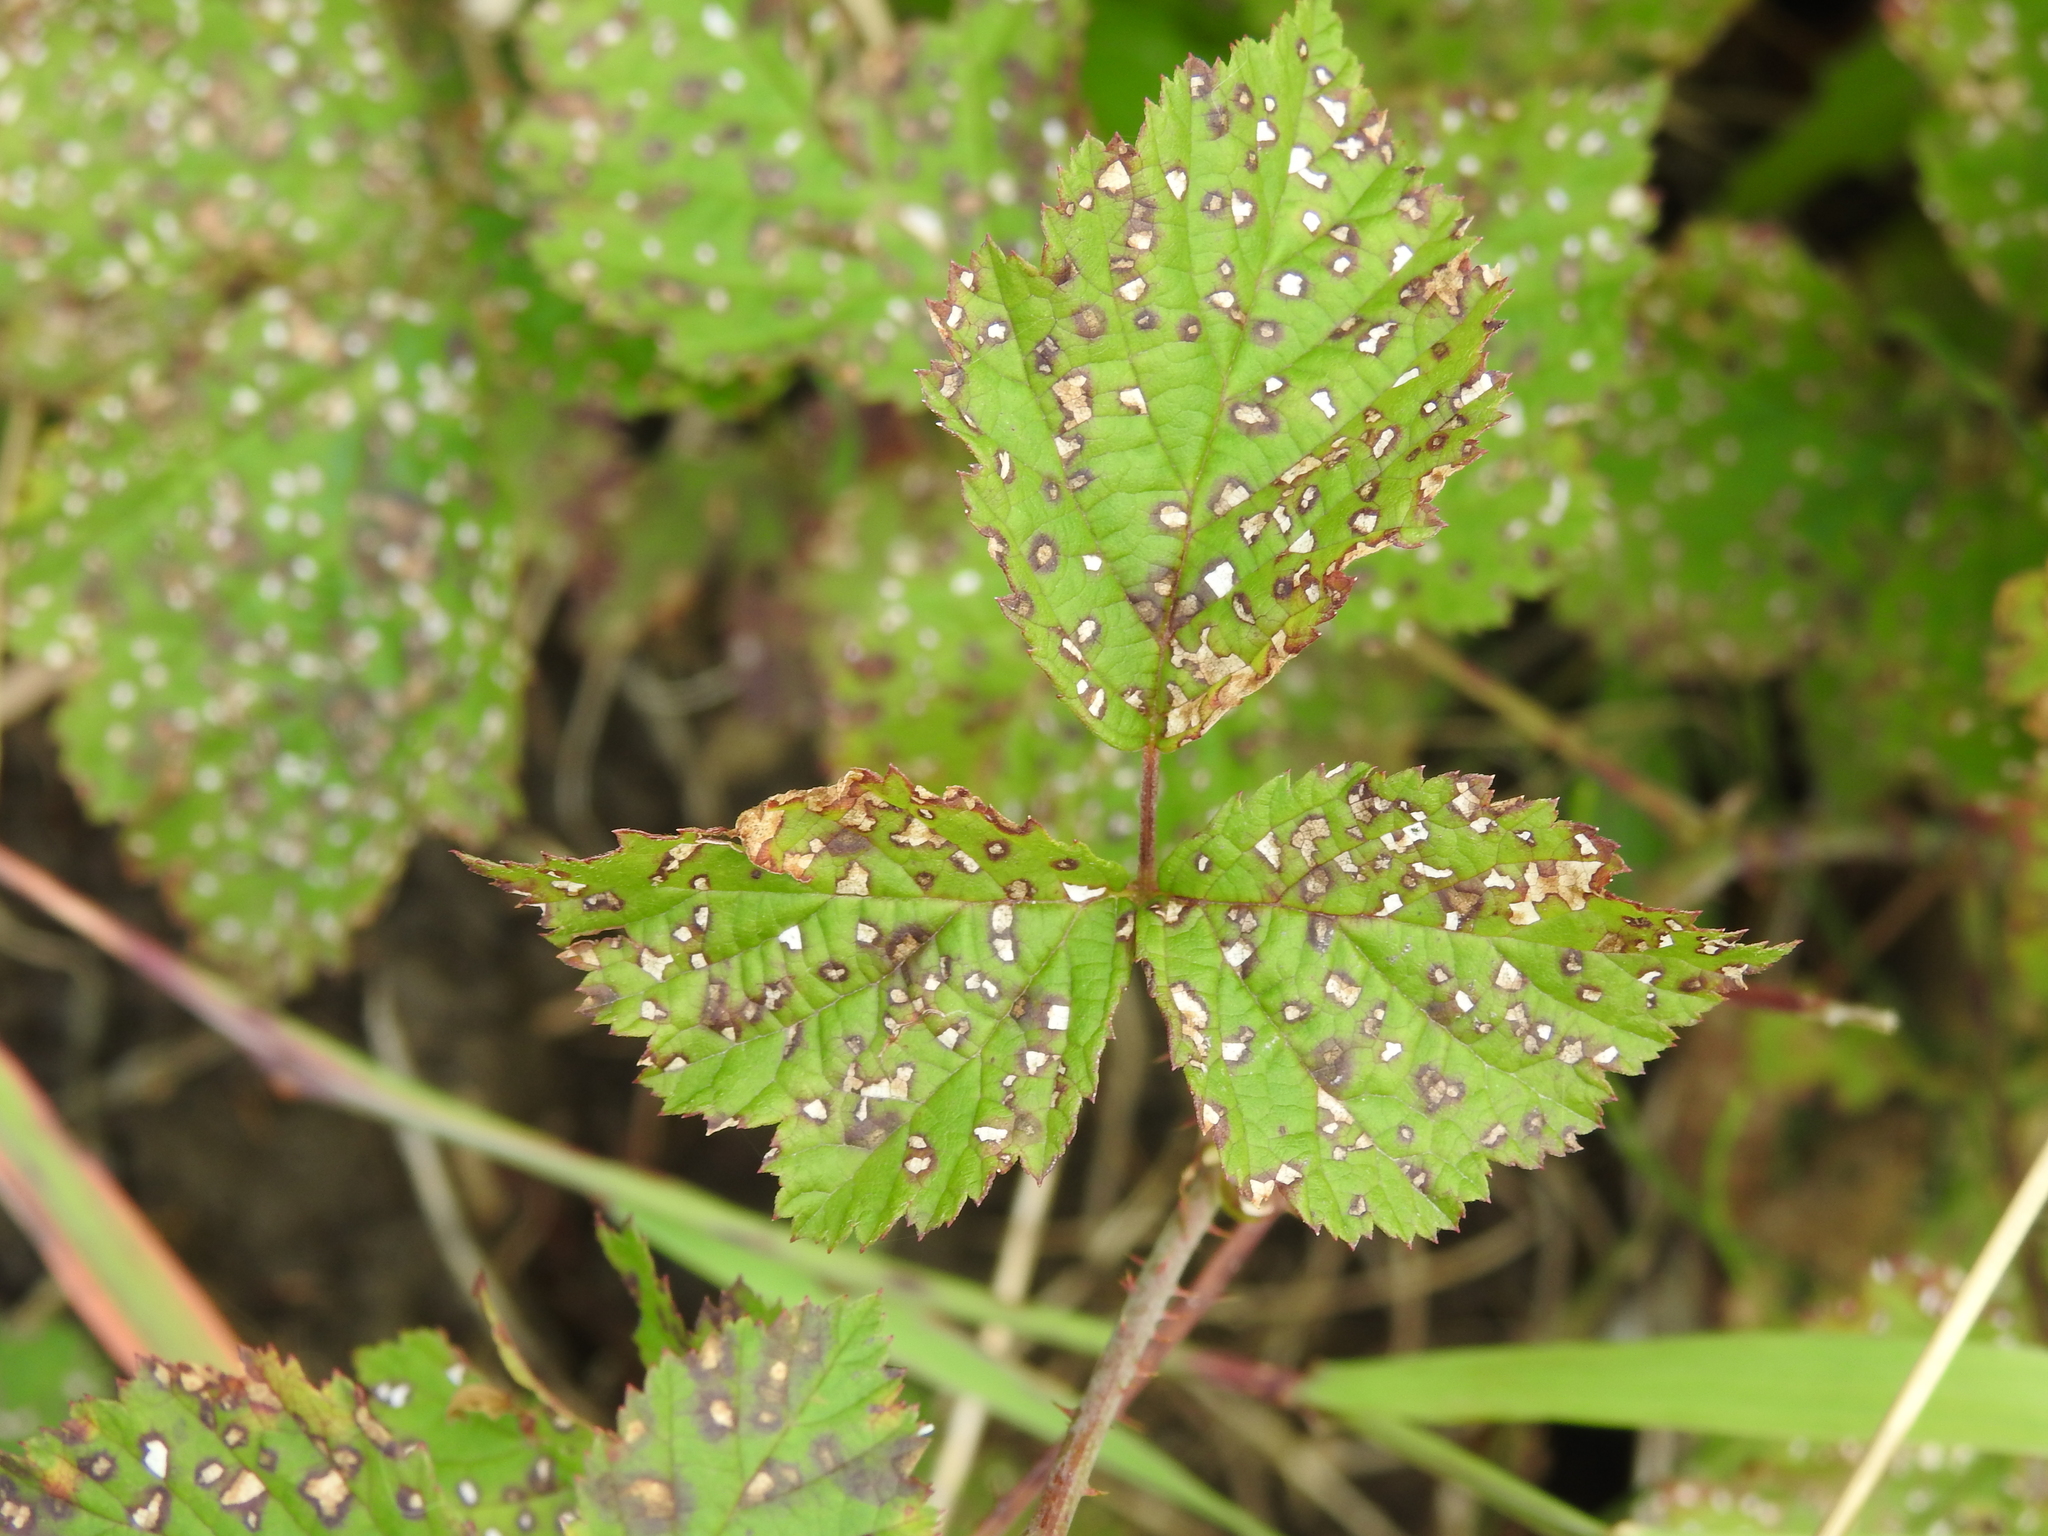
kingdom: Plantae
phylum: Tracheophyta
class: Magnoliopsida
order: Rosales
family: Rosaceae
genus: Rubus
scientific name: Rubus caesius
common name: Dewberry
